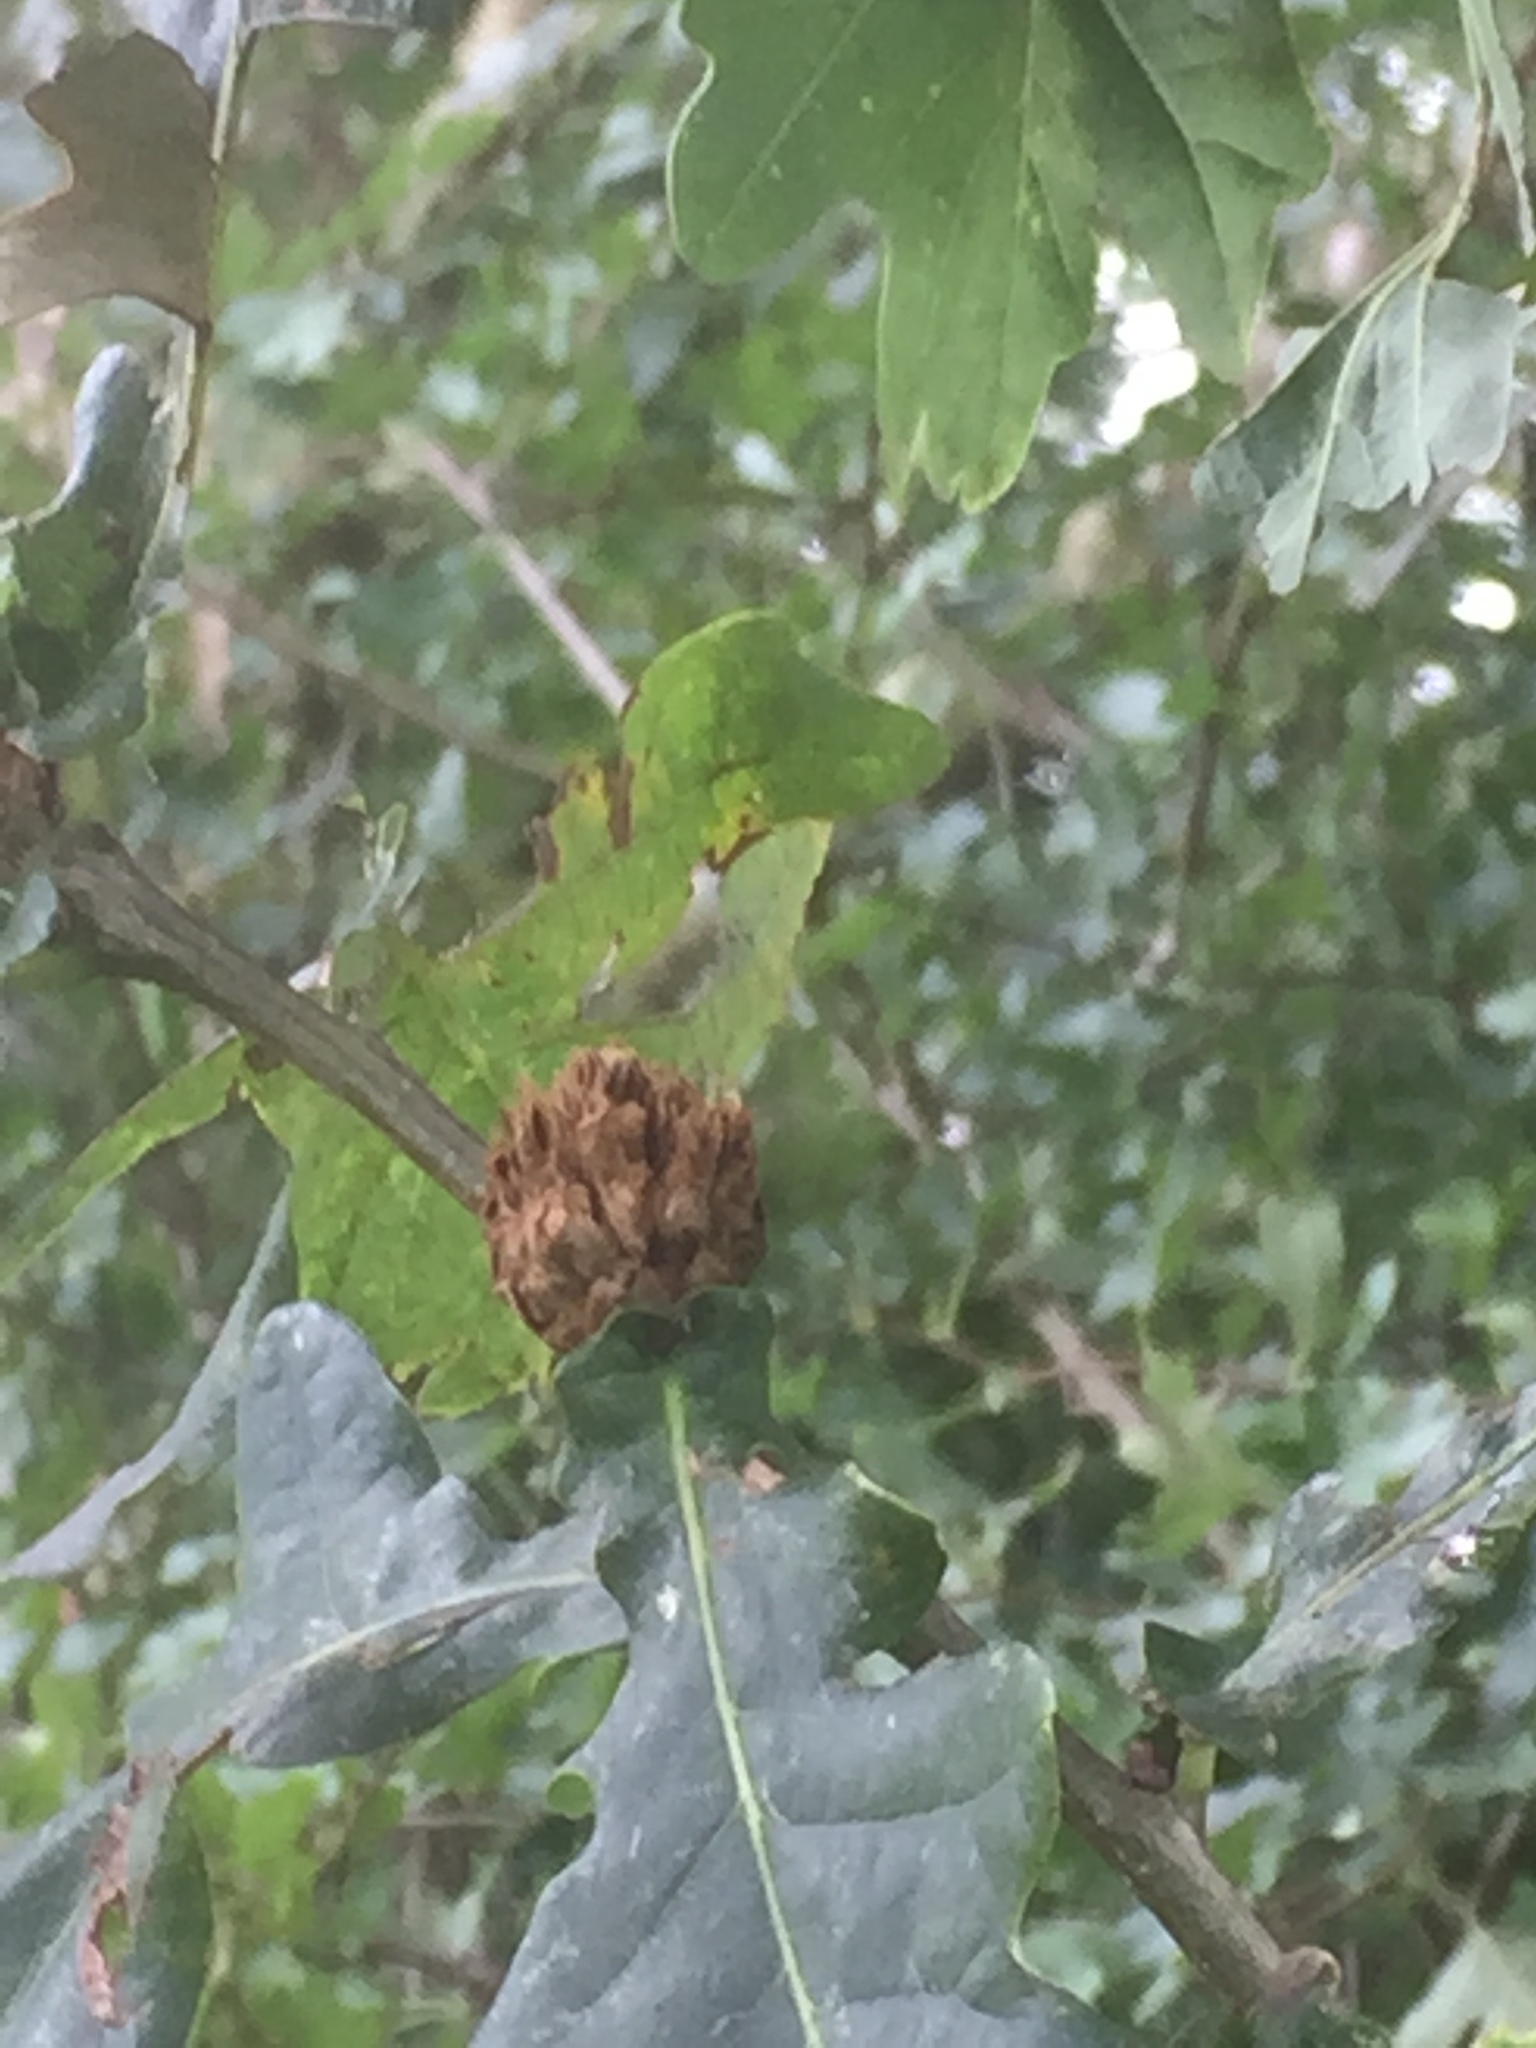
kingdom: Animalia
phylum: Arthropoda
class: Insecta
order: Hymenoptera
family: Cynipidae
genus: Andricus
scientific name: Andricus foecundatrix
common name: Artichoke gall
